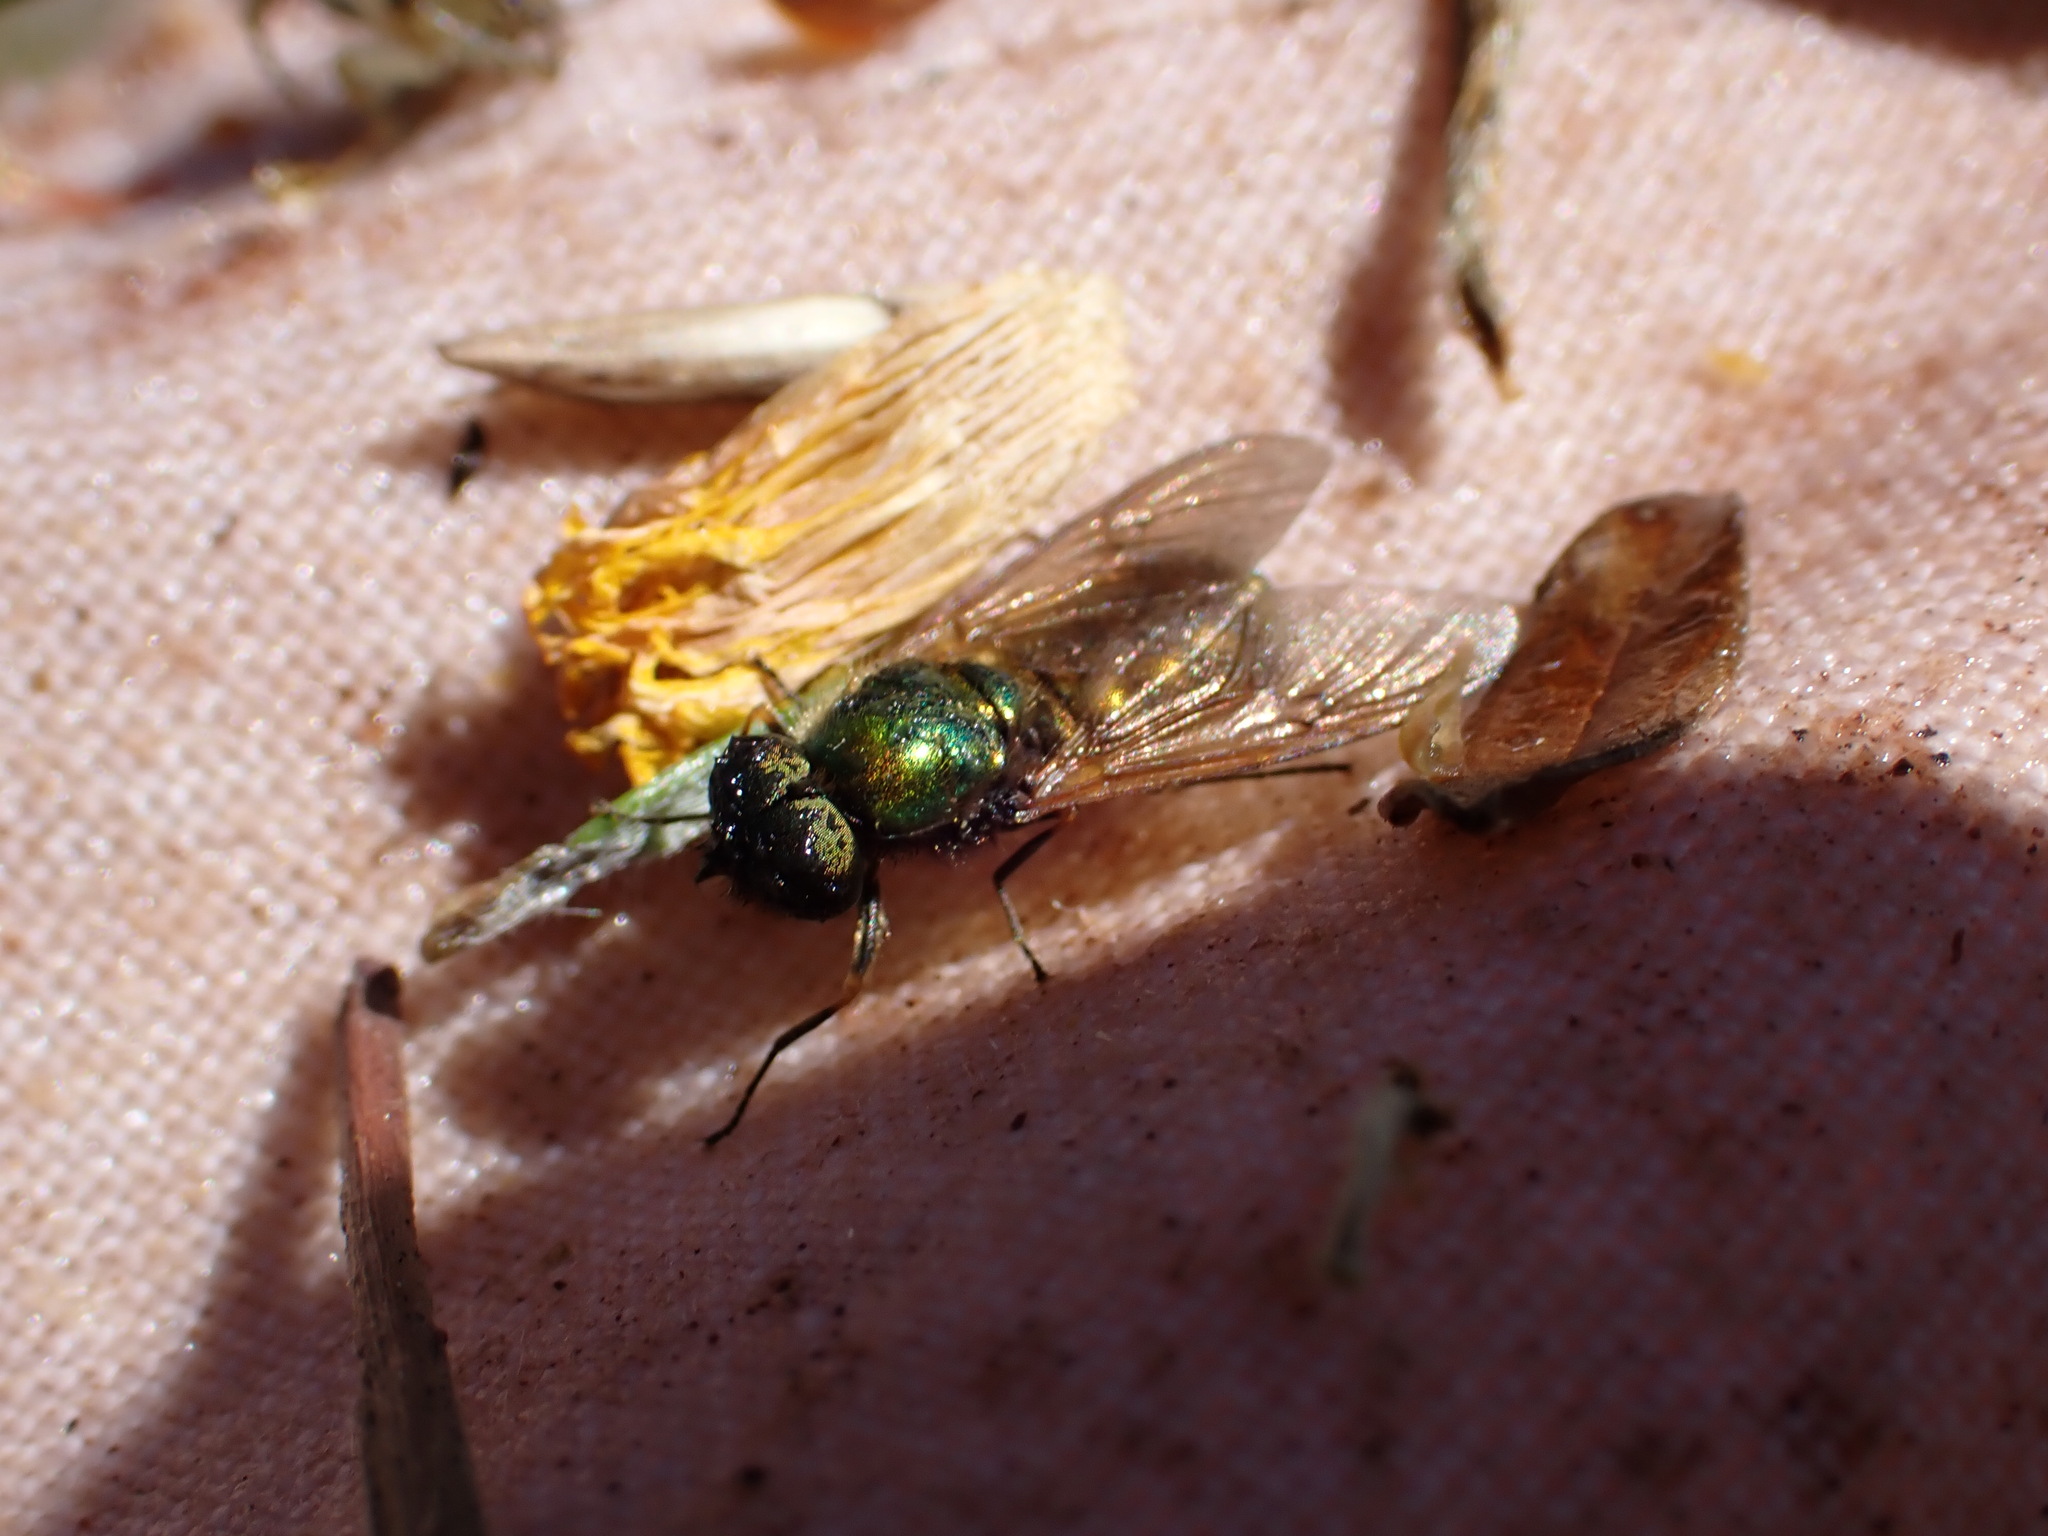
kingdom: Animalia
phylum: Arthropoda
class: Insecta
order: Diptera
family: Stratiomyidae
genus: Chloromyia
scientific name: Chloromyia formosa
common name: Soldier fly
